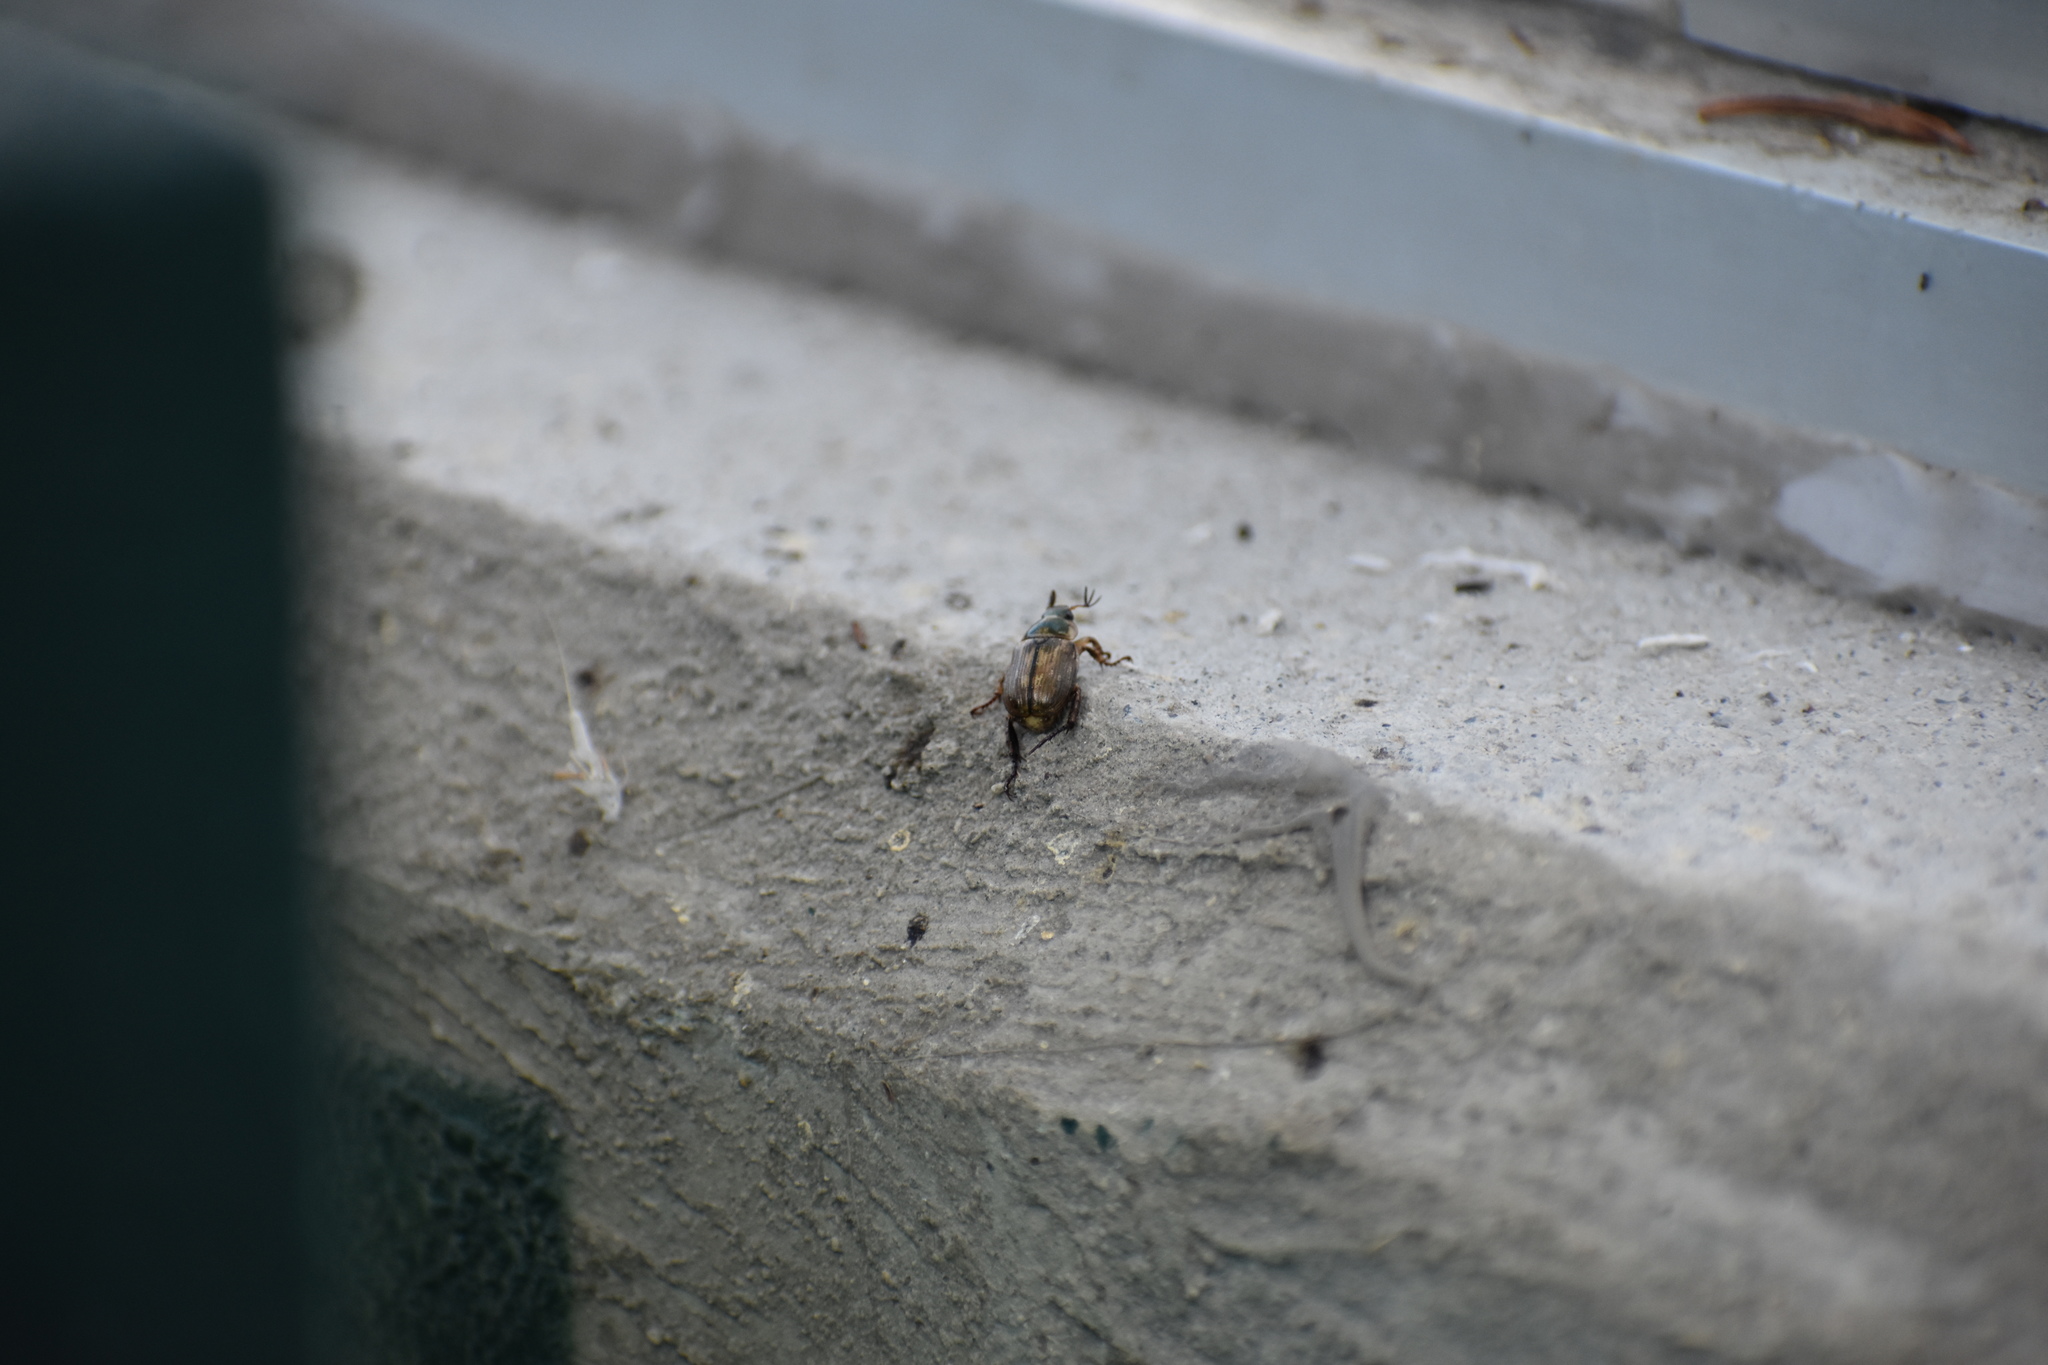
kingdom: Animalia
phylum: Arthropoda
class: Insecta
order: Coleoptera
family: Scarabaeidae
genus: Exomala
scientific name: Exomala orientalis
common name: Oriental beetle
